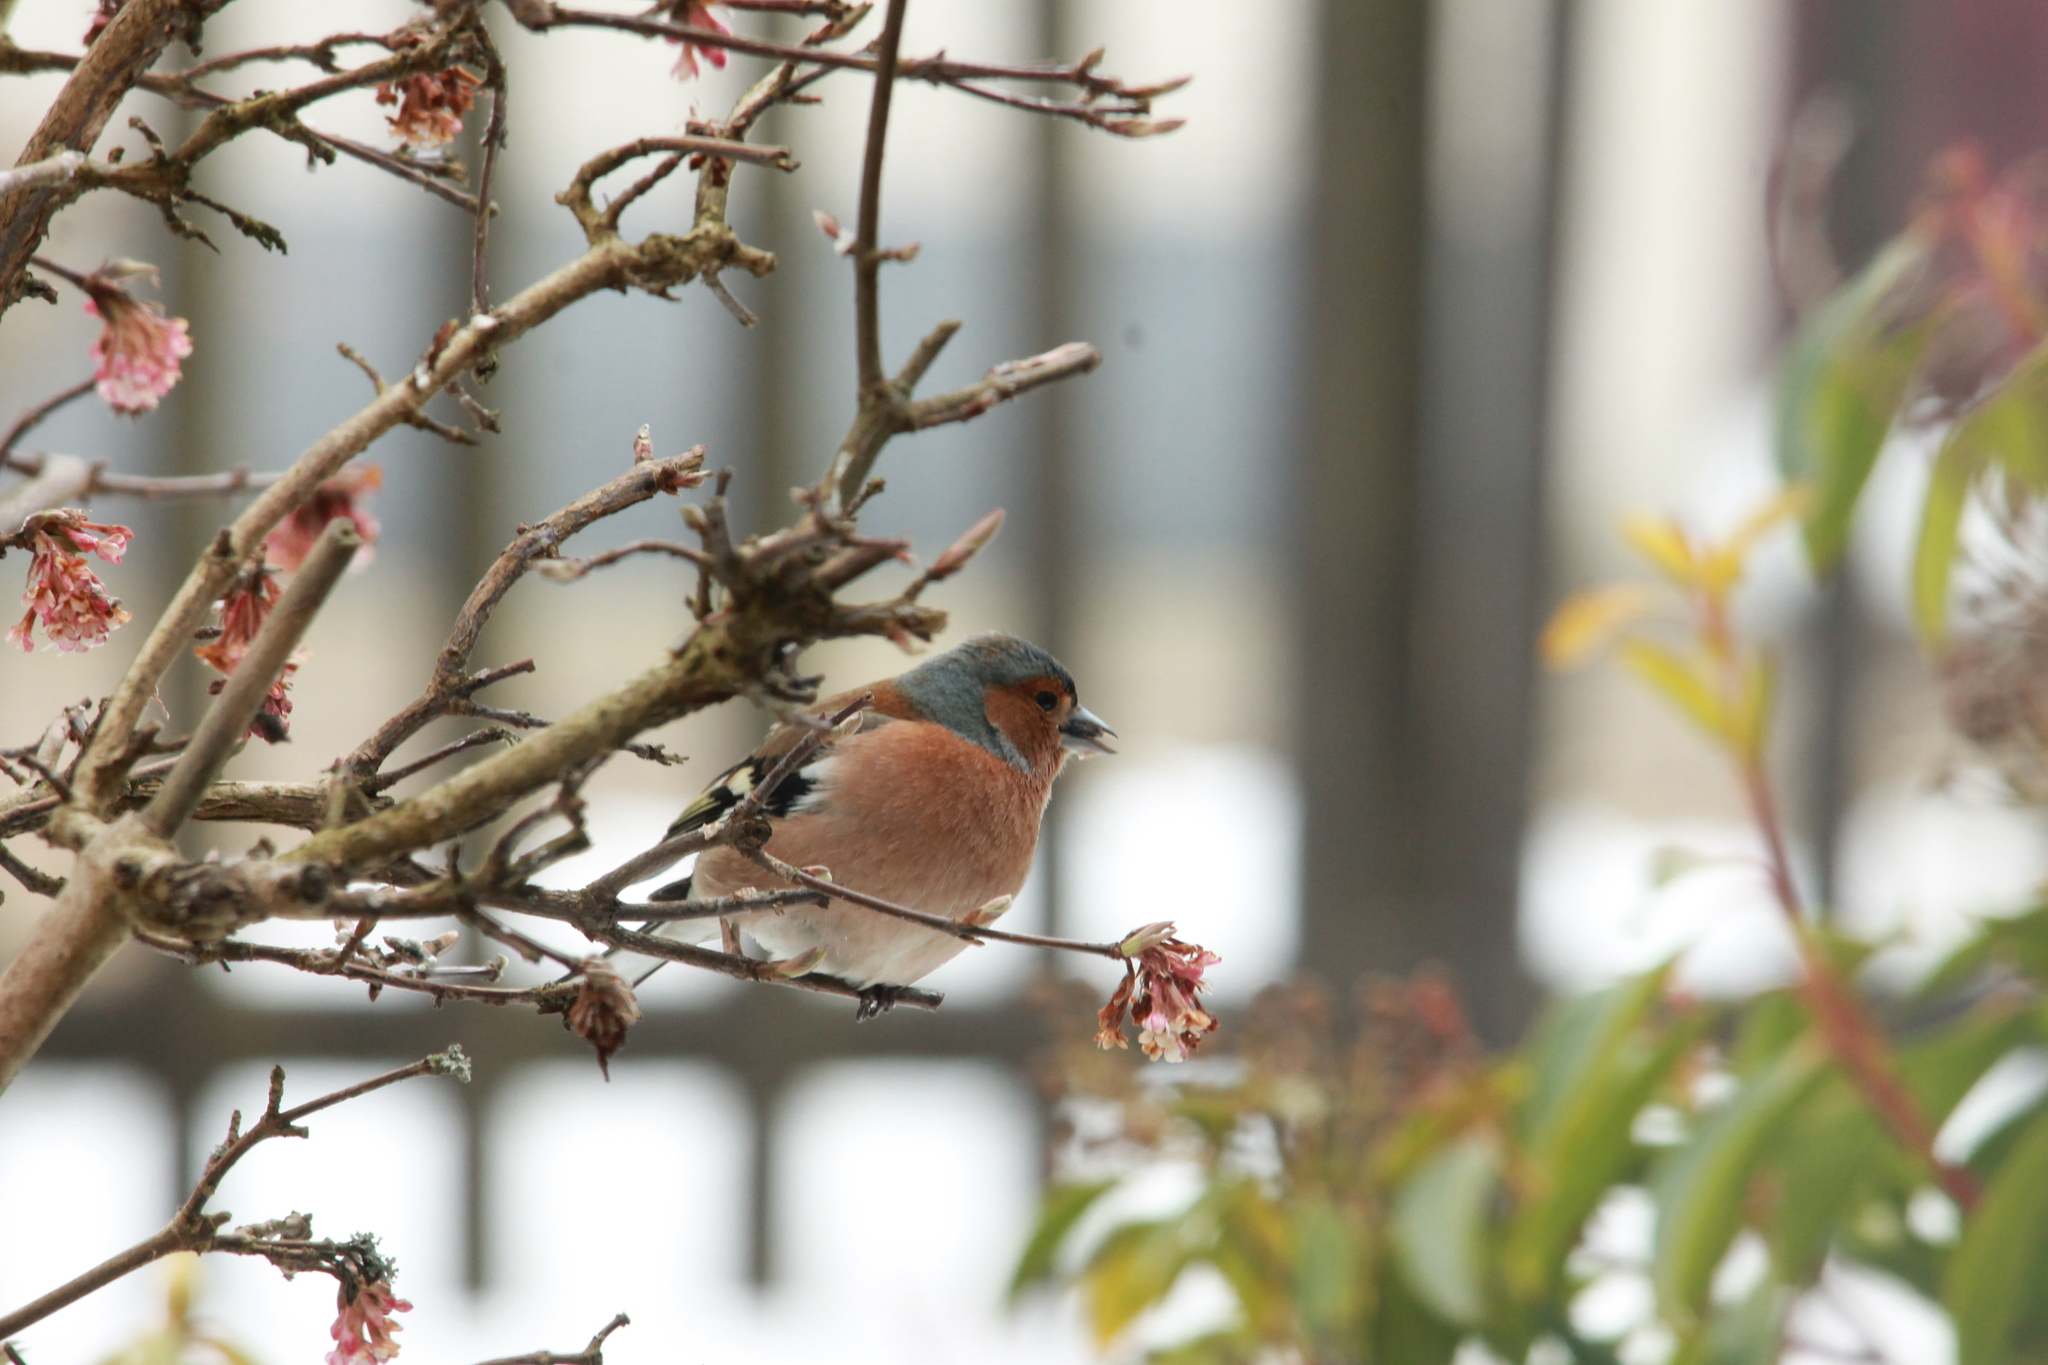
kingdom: Animalia
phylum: Chordata
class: Aves
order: Passeriformes
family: Fringillidae
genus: Fringilla
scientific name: Fringilla coelebs
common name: Common chaffinch
